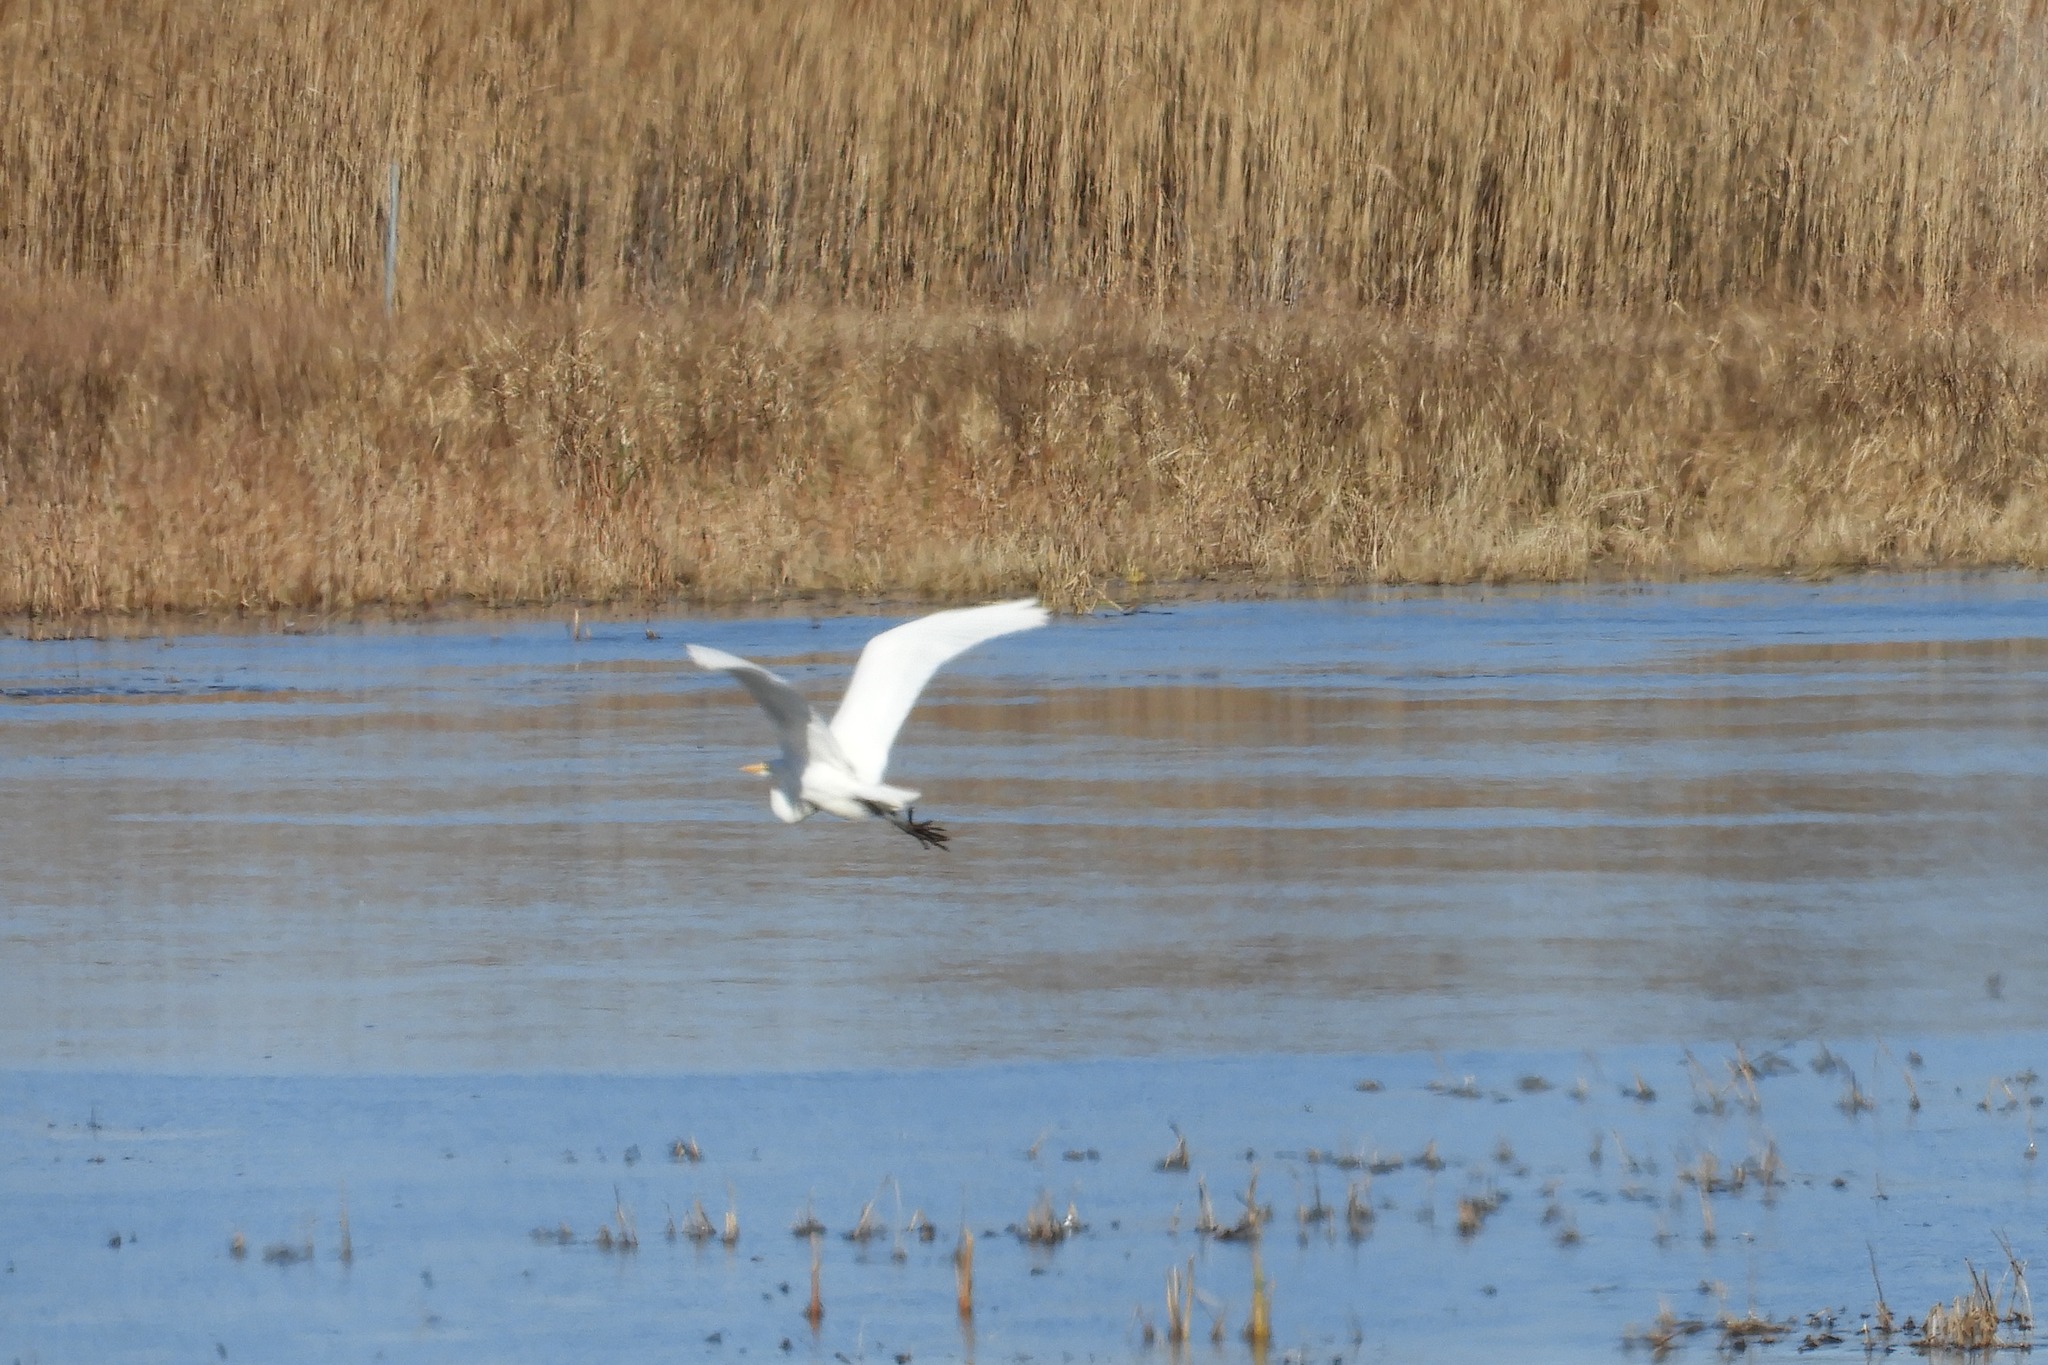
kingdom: Animalia
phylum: Chordata
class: Aves
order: Pelecaniformes
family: Ardeidae
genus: Ardea
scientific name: Ardea alba
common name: Great egret
